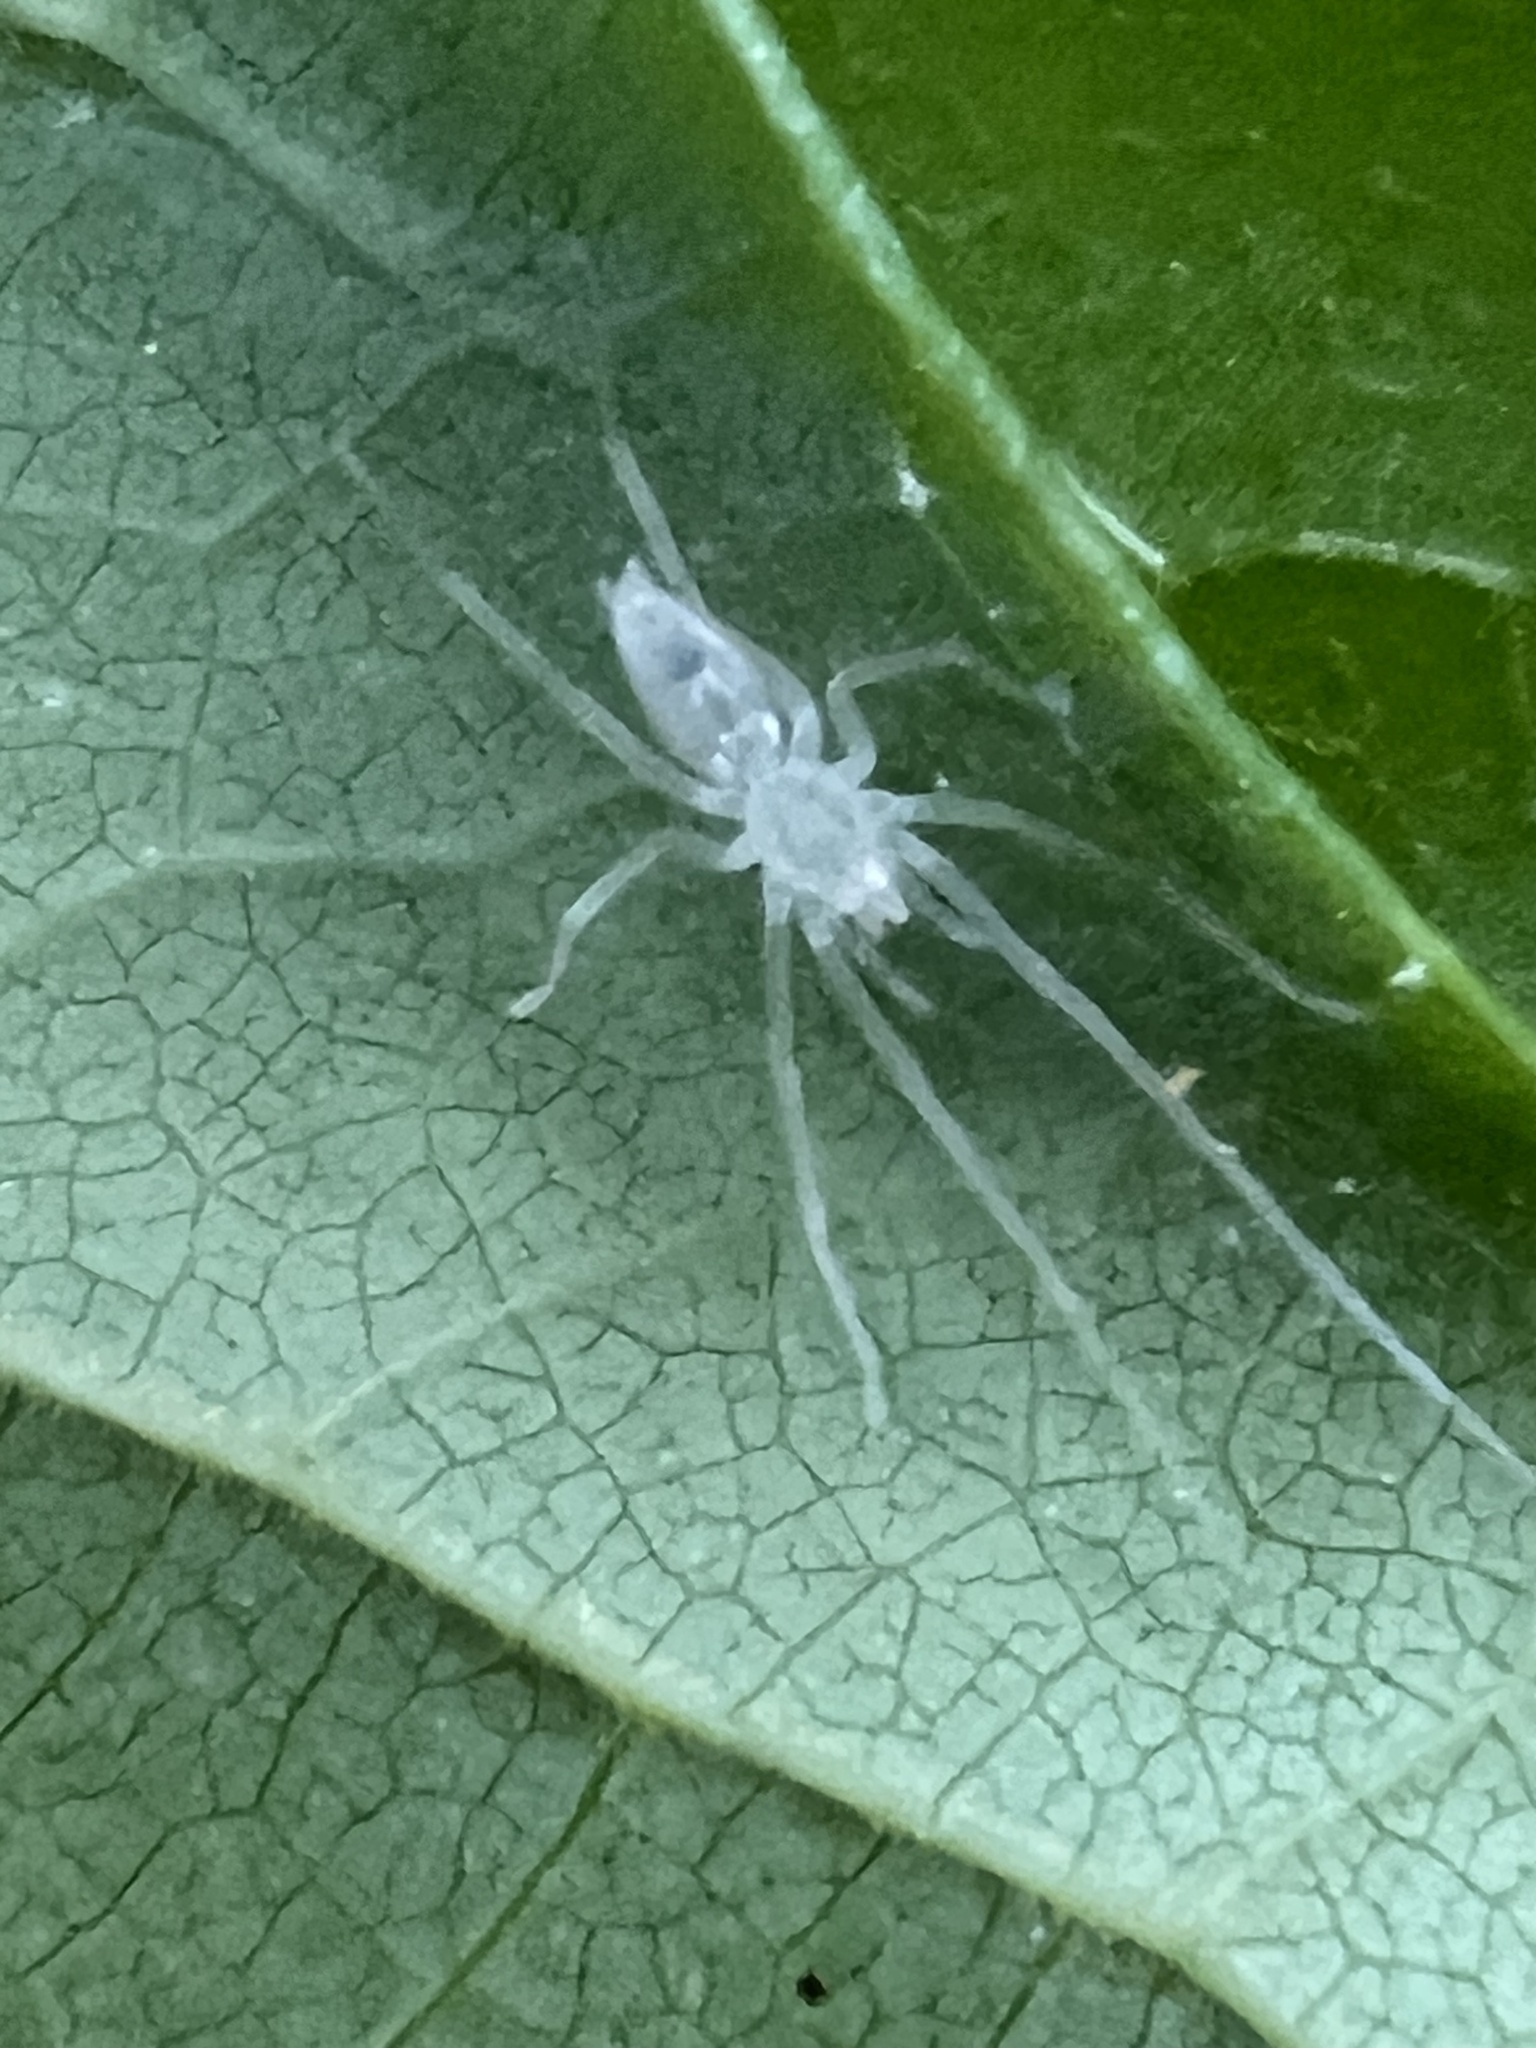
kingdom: Animalia
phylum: Arthropoda
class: Arachnida
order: Araneae
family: Anyphaenidae
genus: Wulfila
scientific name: Wulfila albens
